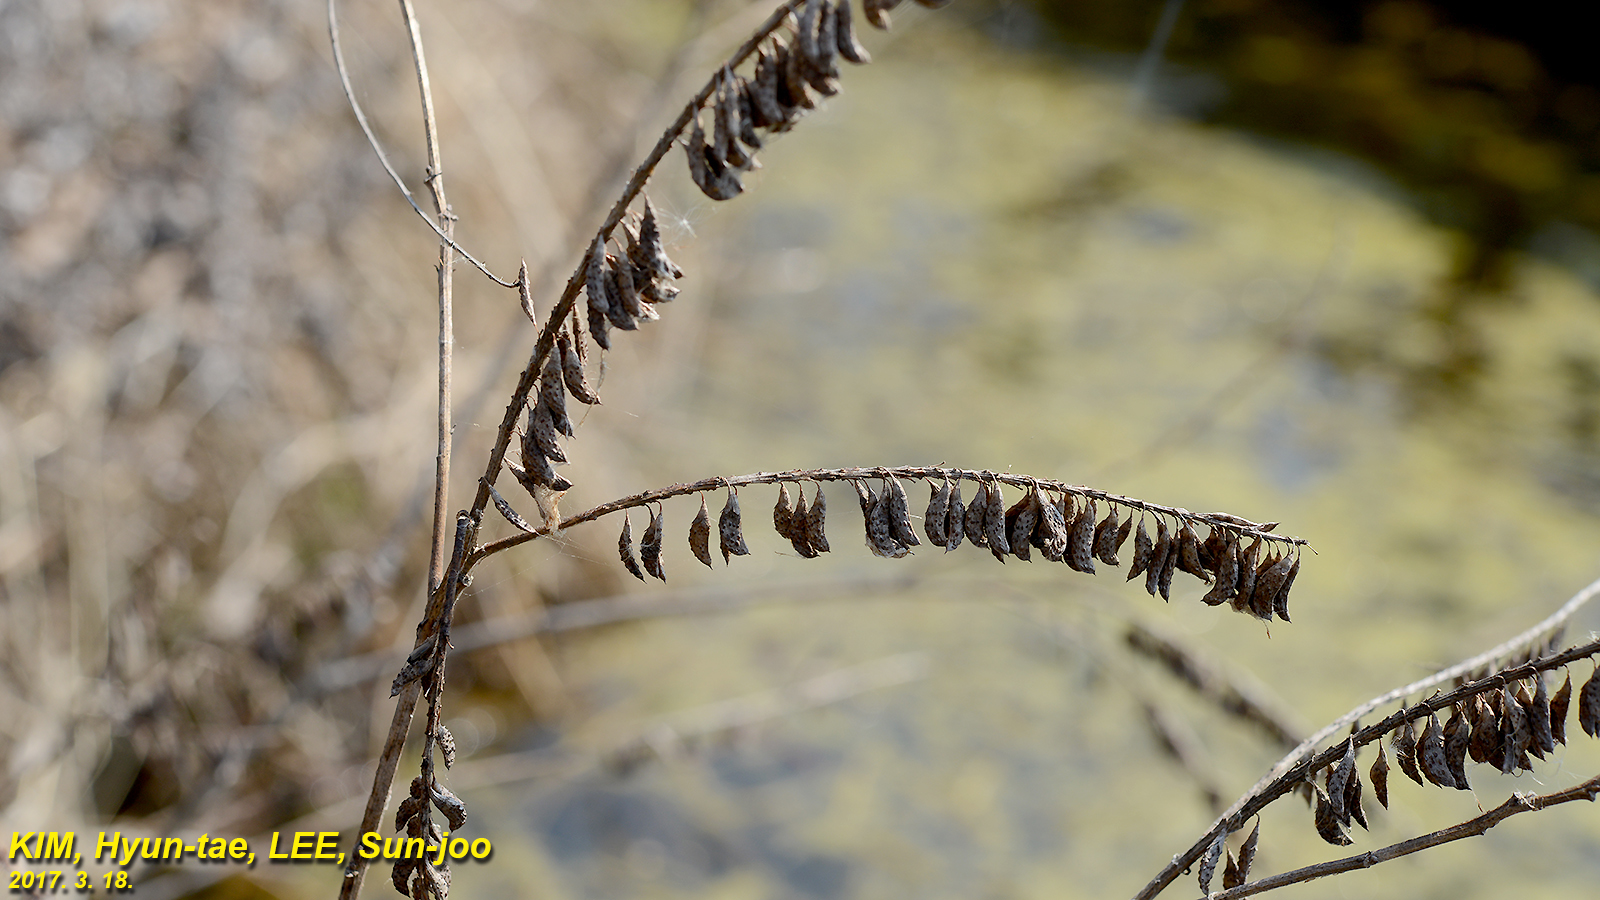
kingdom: Plantae
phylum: Tracheophyta
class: Magnoliopsida
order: Fabales
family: Fabaceae
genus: Amorpha
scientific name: Amorpha fruticosa
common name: False indigo
